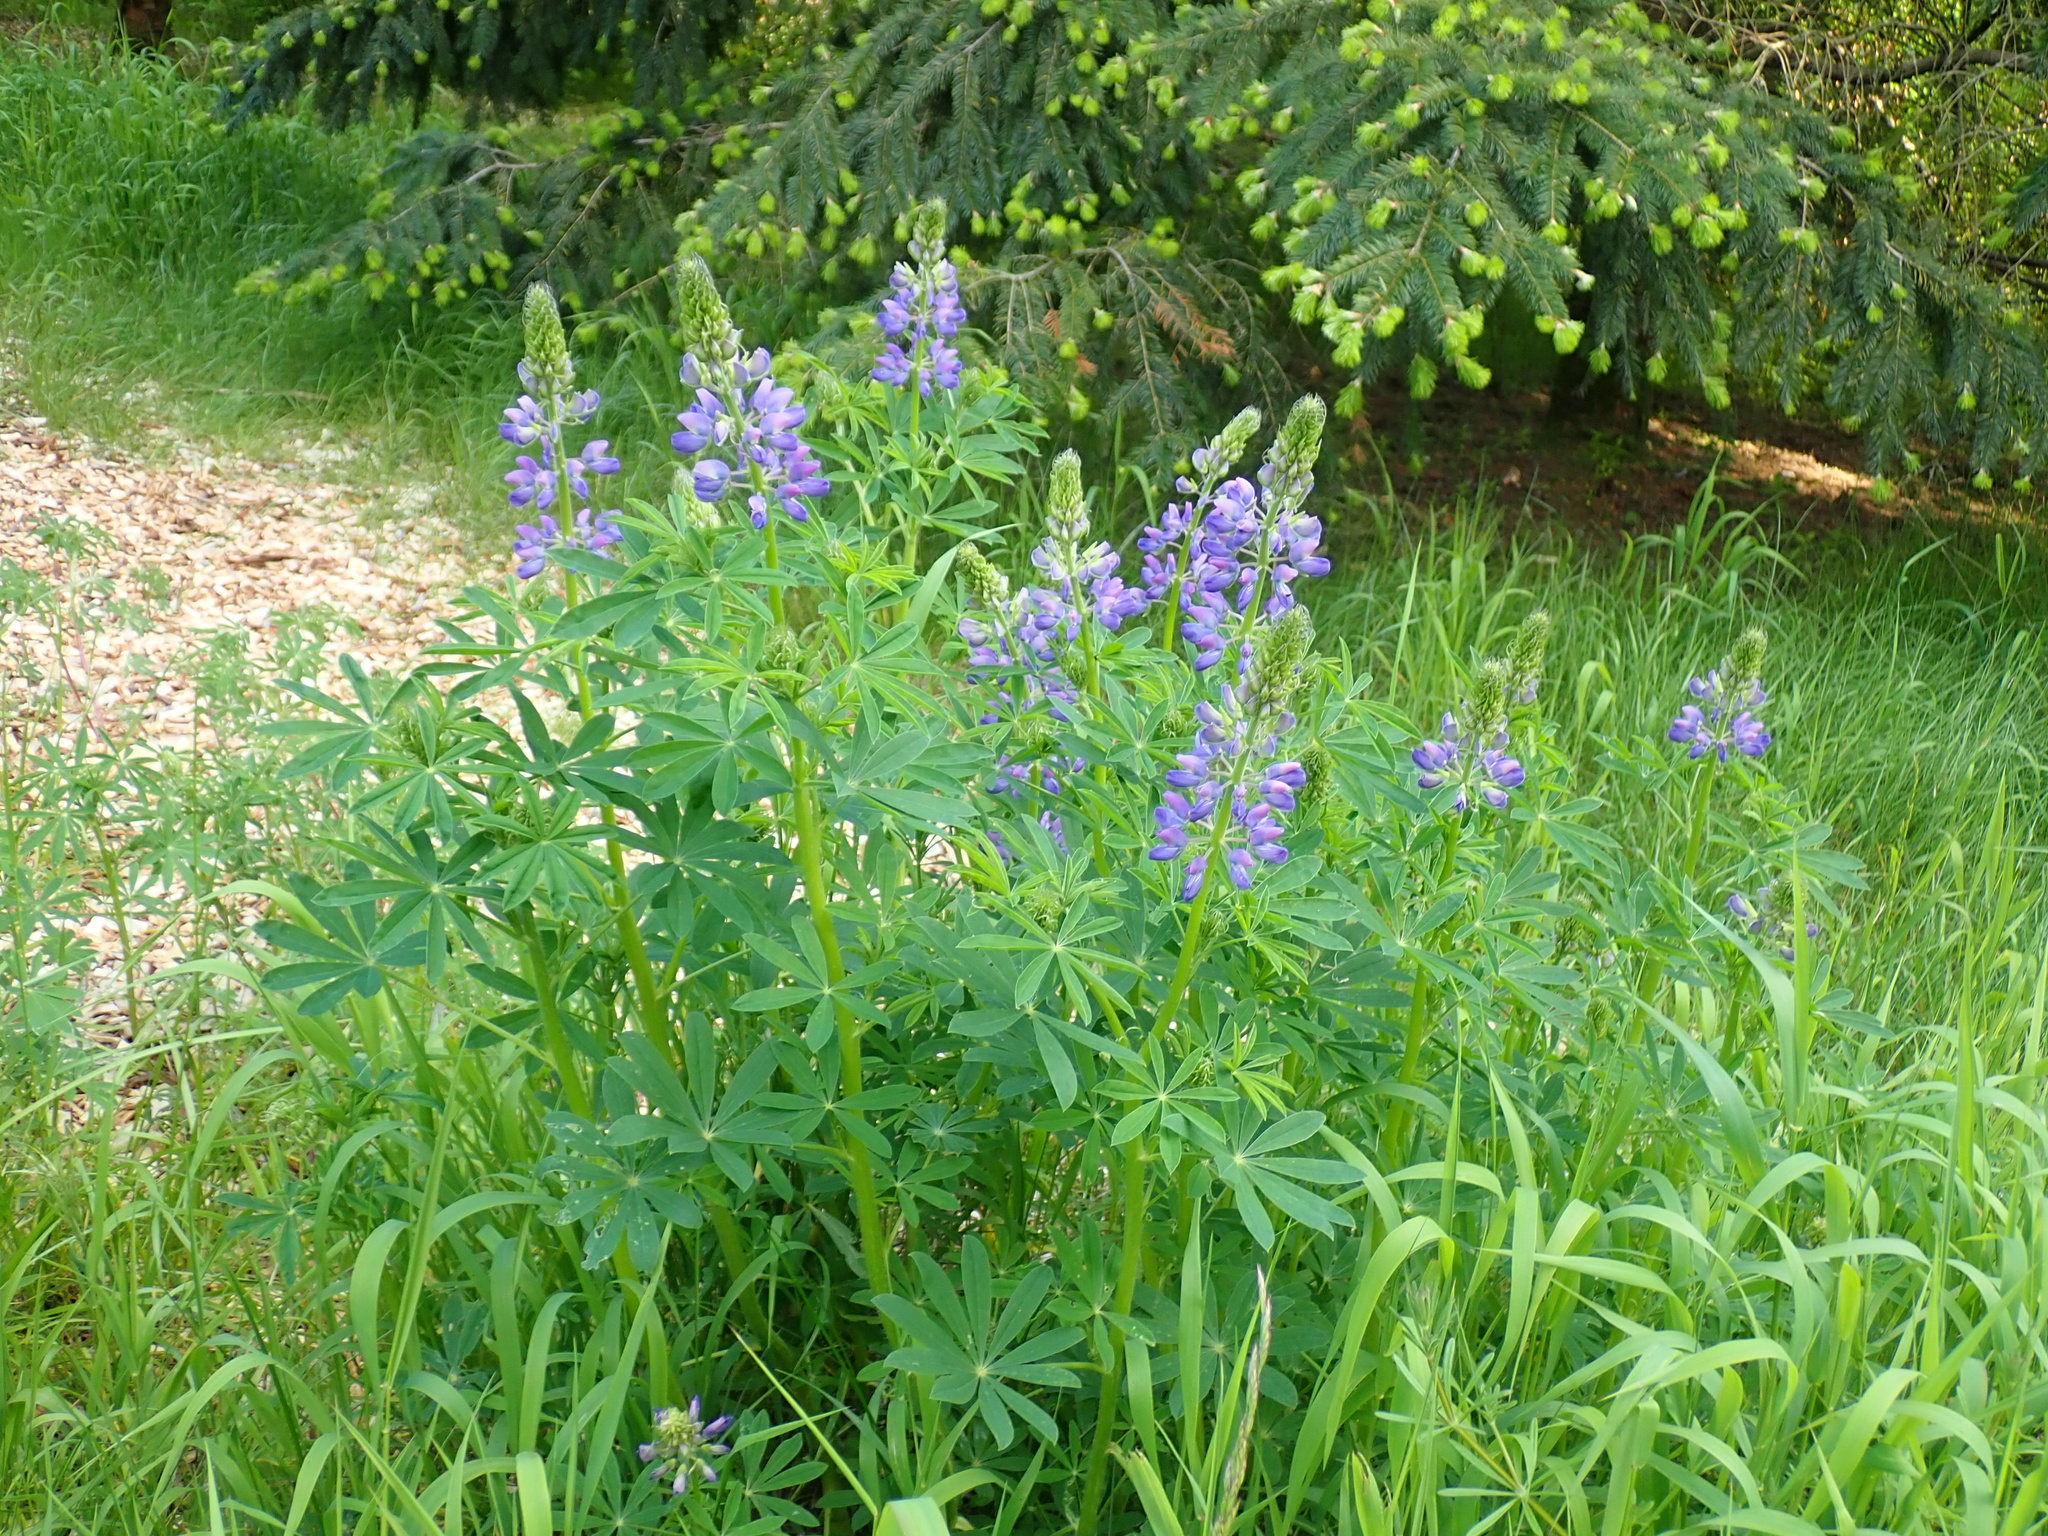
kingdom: Plantae
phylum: Tracheophyta
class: Magnoliopsida
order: Fabales
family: Fabaceae
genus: Lupinus
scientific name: Lupinus polyphyllus
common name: Garden lupin
